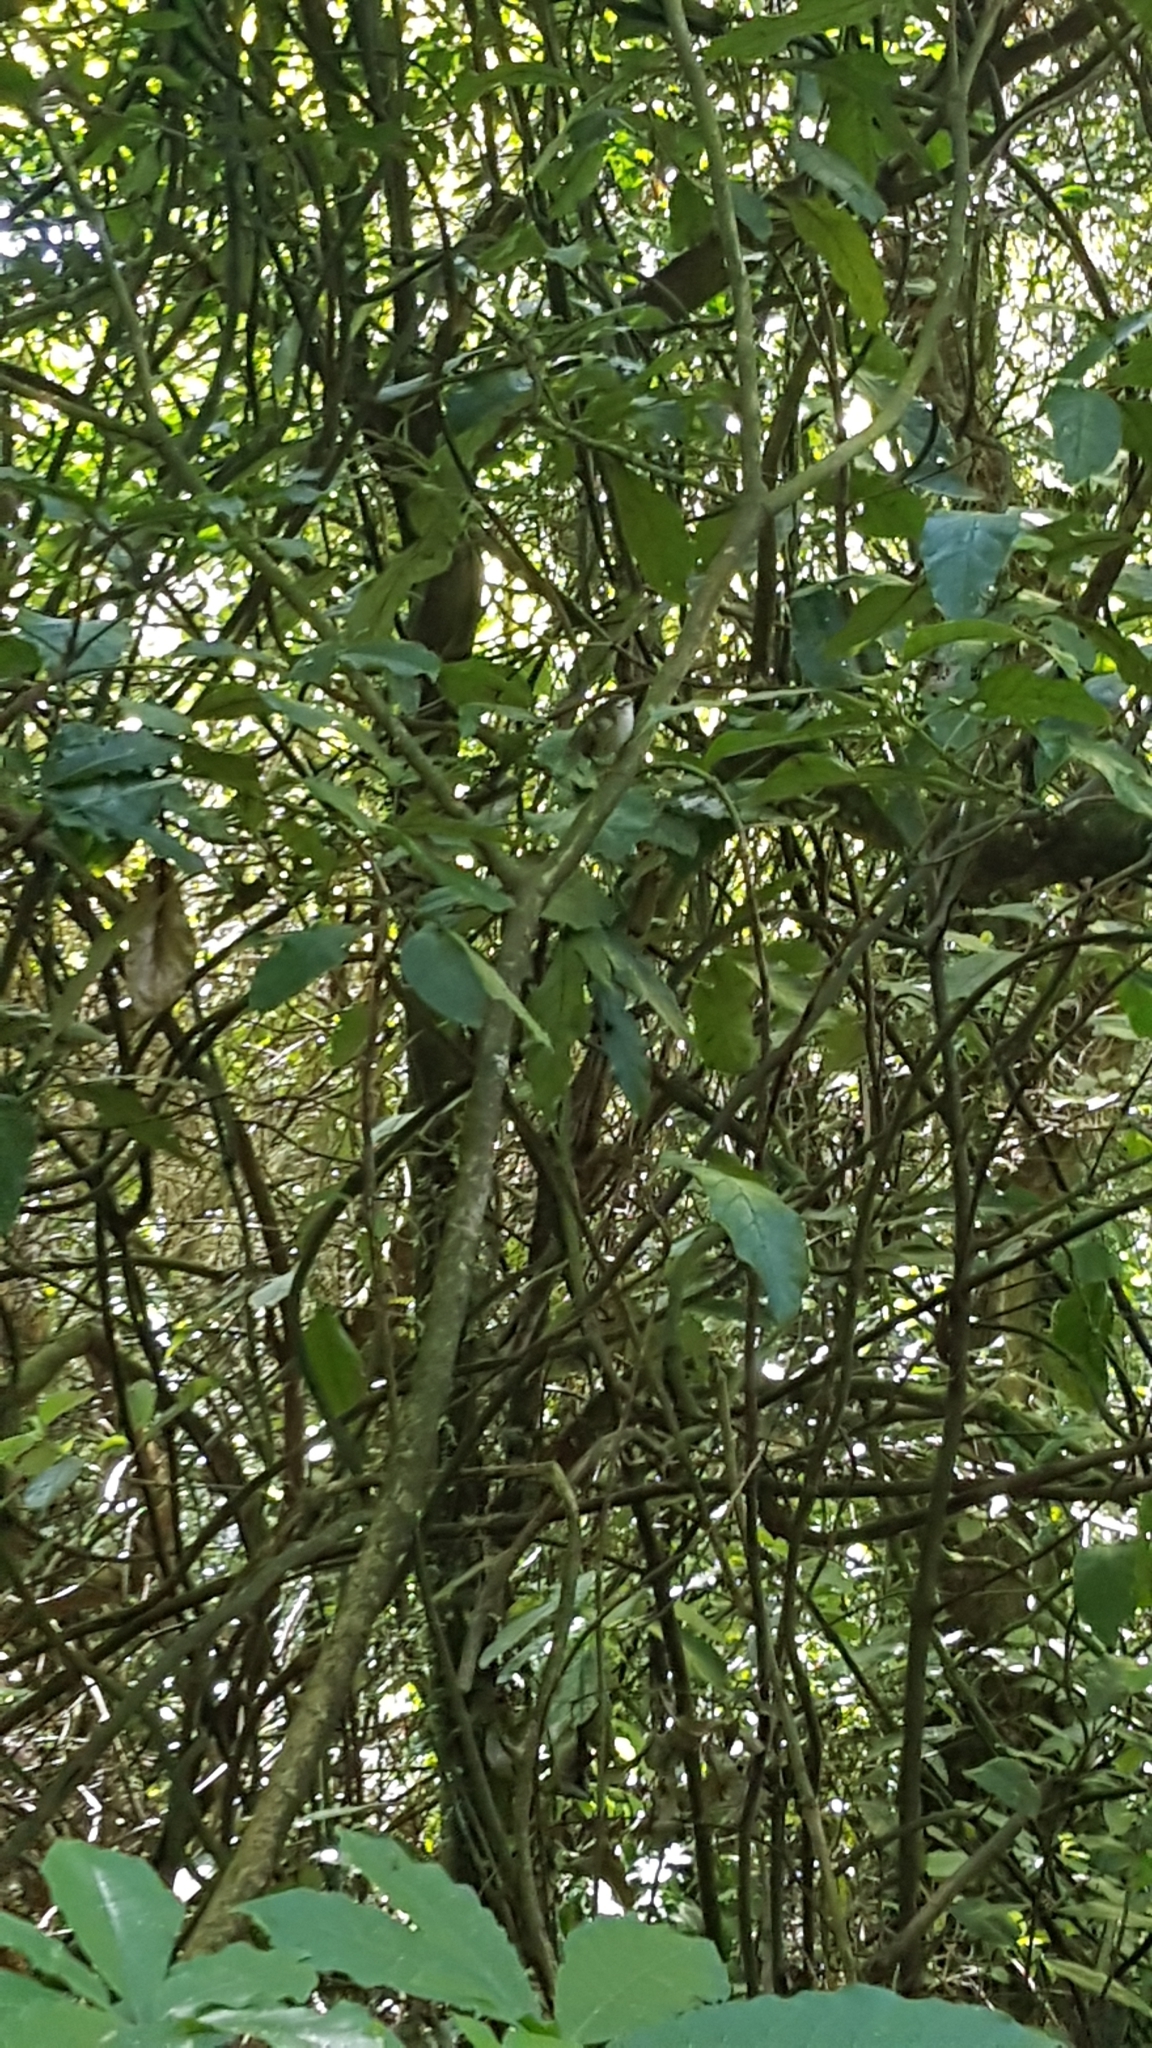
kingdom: Animalia
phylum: Chordata
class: Aves
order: Passeriformes
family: Acanthisittidae
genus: Acanthisitta
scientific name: Acanthisitta chloris
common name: Rifleman
